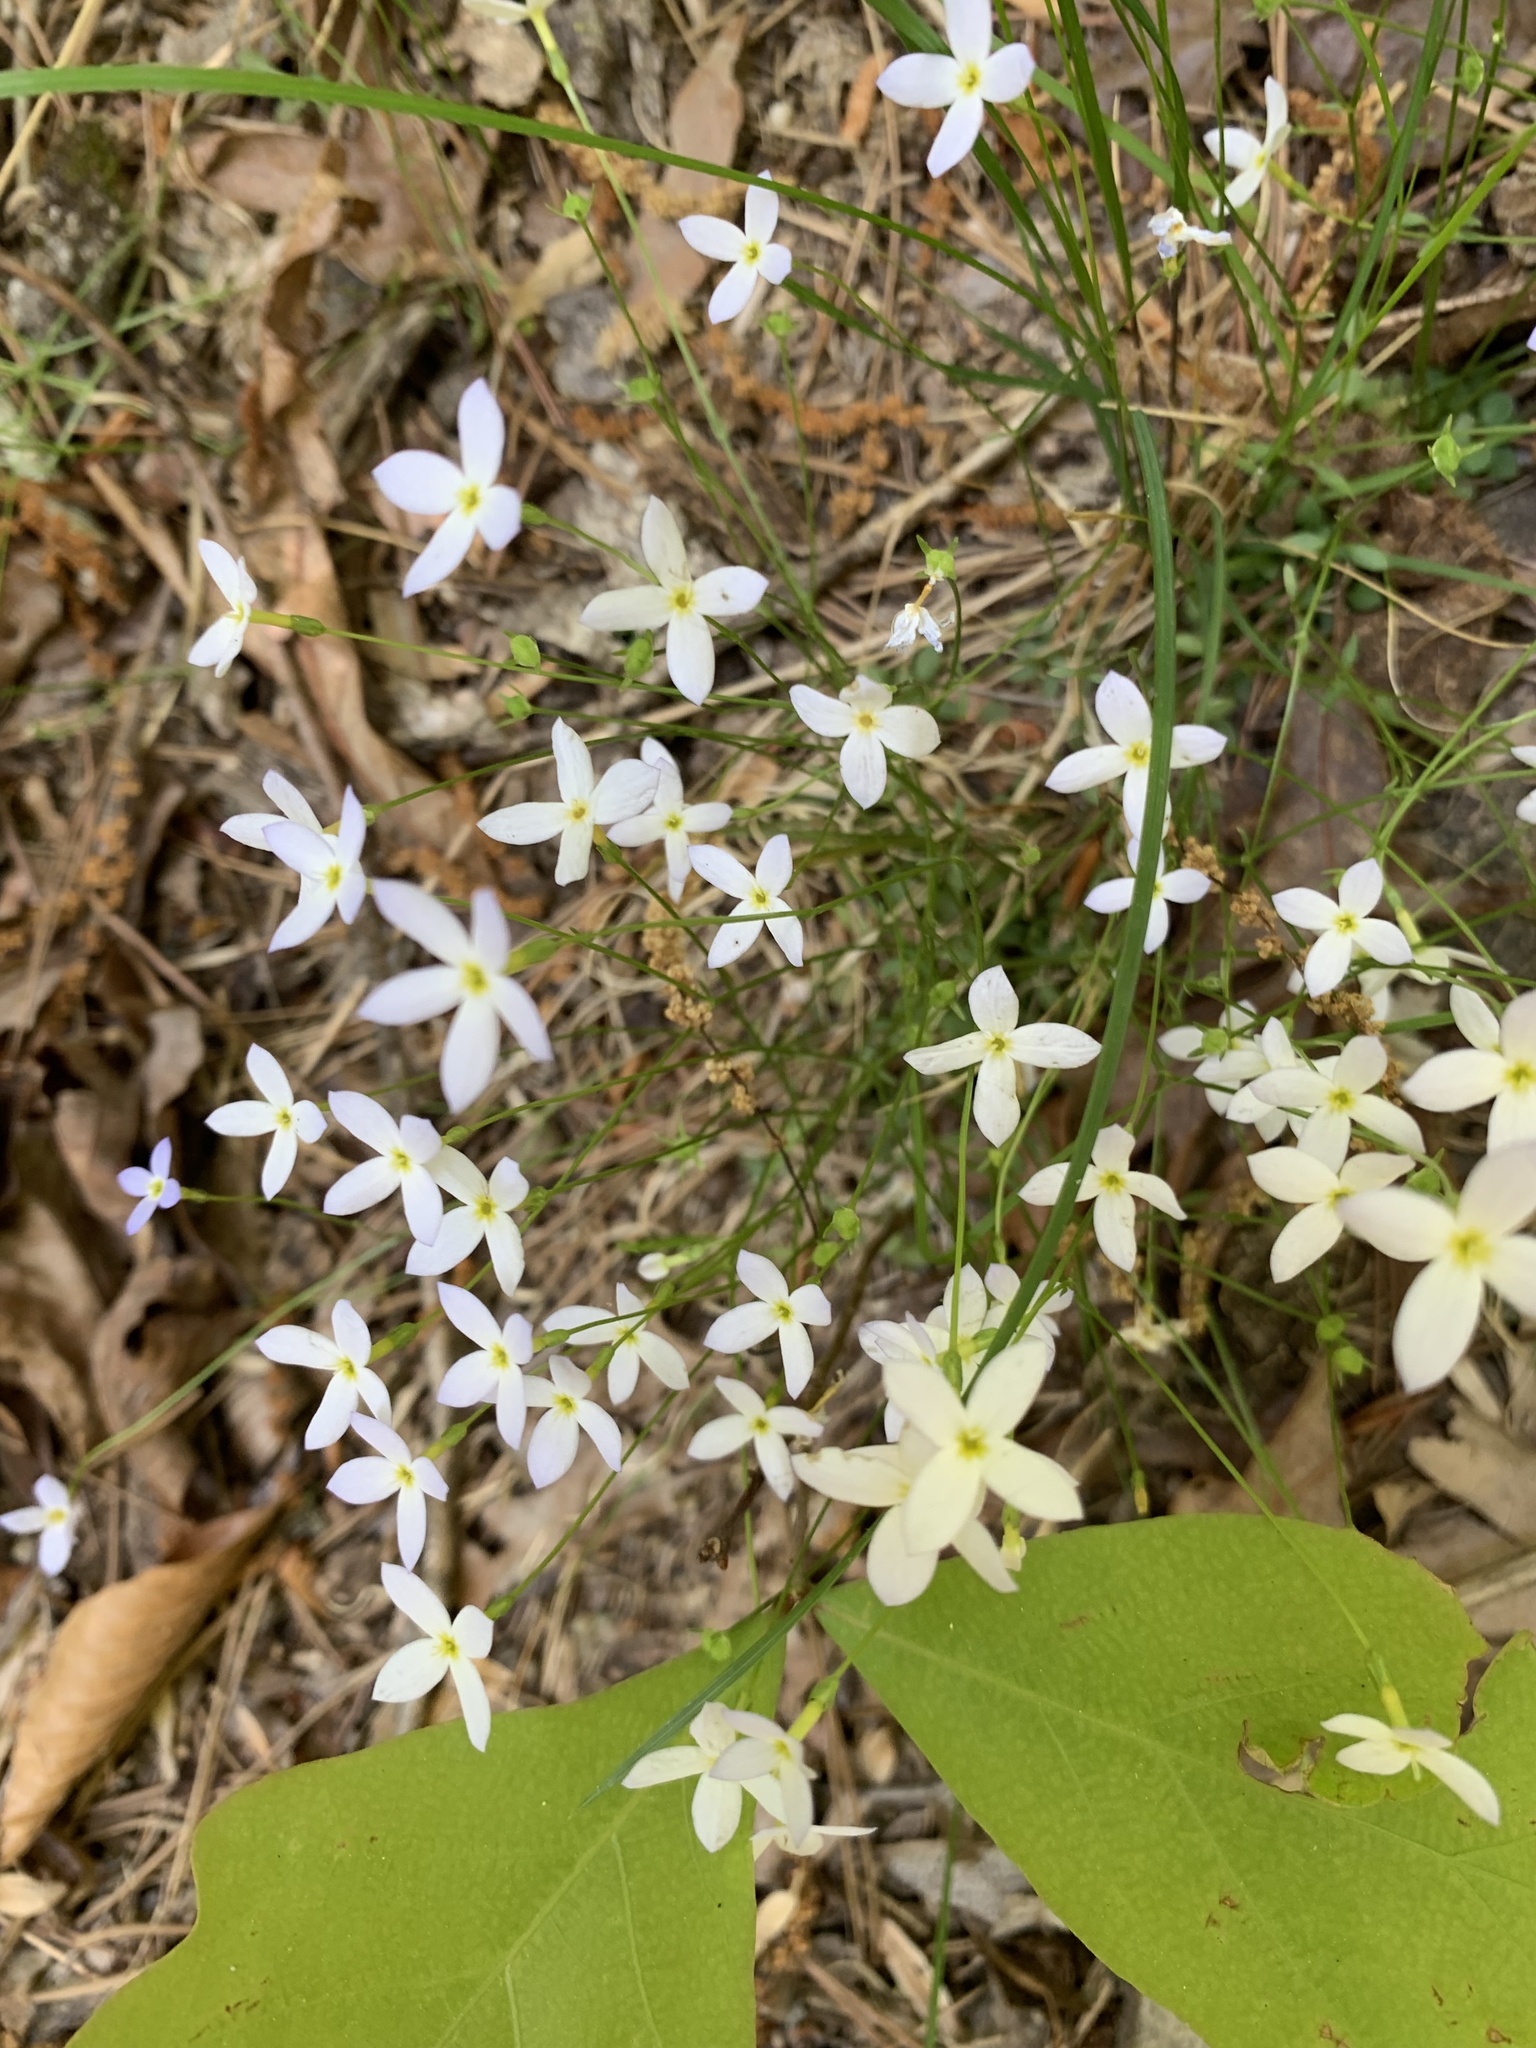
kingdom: Plantae
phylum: Tracheophyta
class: Magnoliopsida
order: Gentianales
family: Rubiaceae
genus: Houstonia
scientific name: Houstonia caerulea
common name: Bluets
